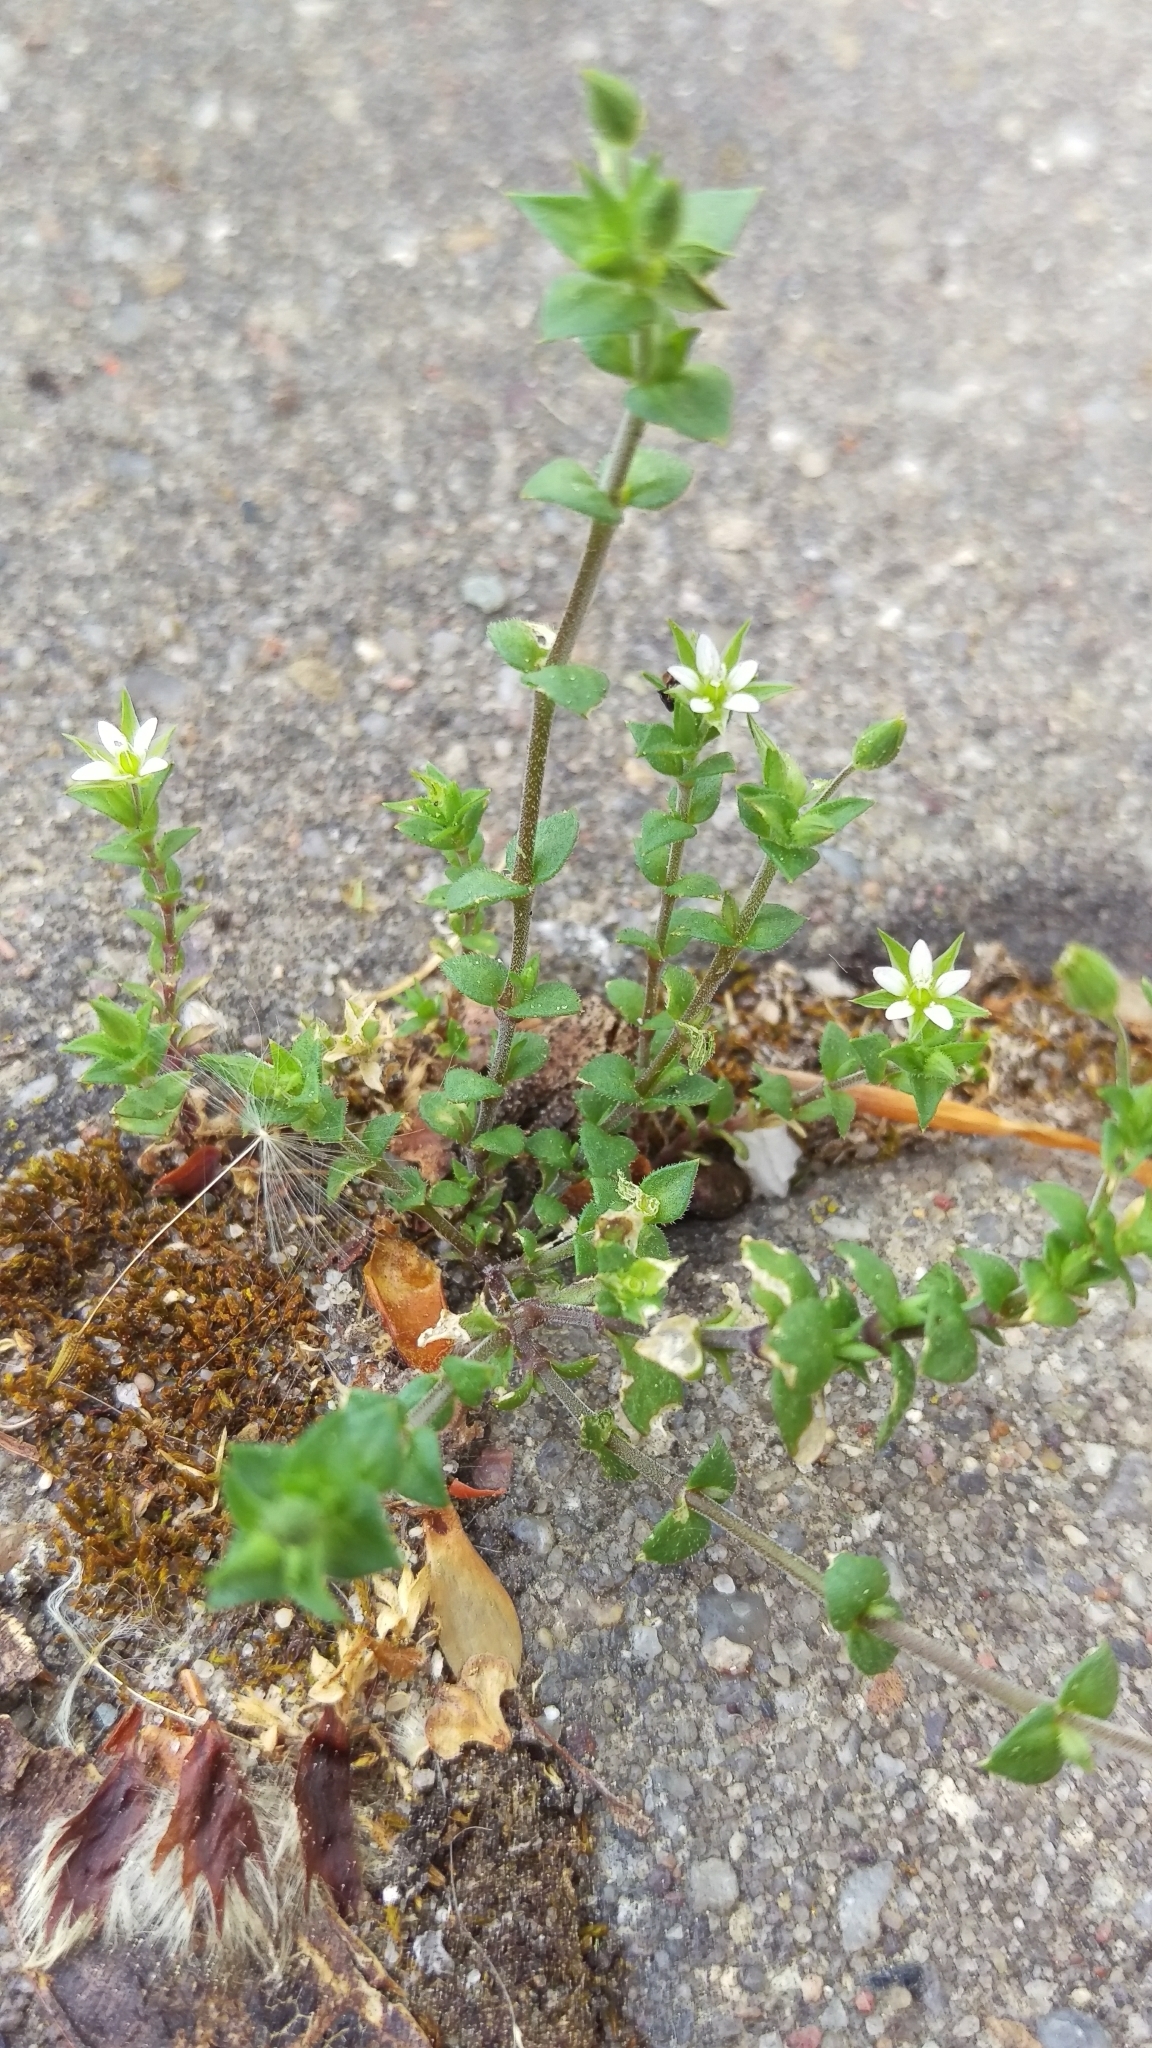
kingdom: Plantae
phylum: Tracheophyta
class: Magnoliopsida
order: Caryophyllales
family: Caryophyllaceae
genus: Arenaria
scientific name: Arenaria serpyllifolia
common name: Thyme-leaved sandwort
